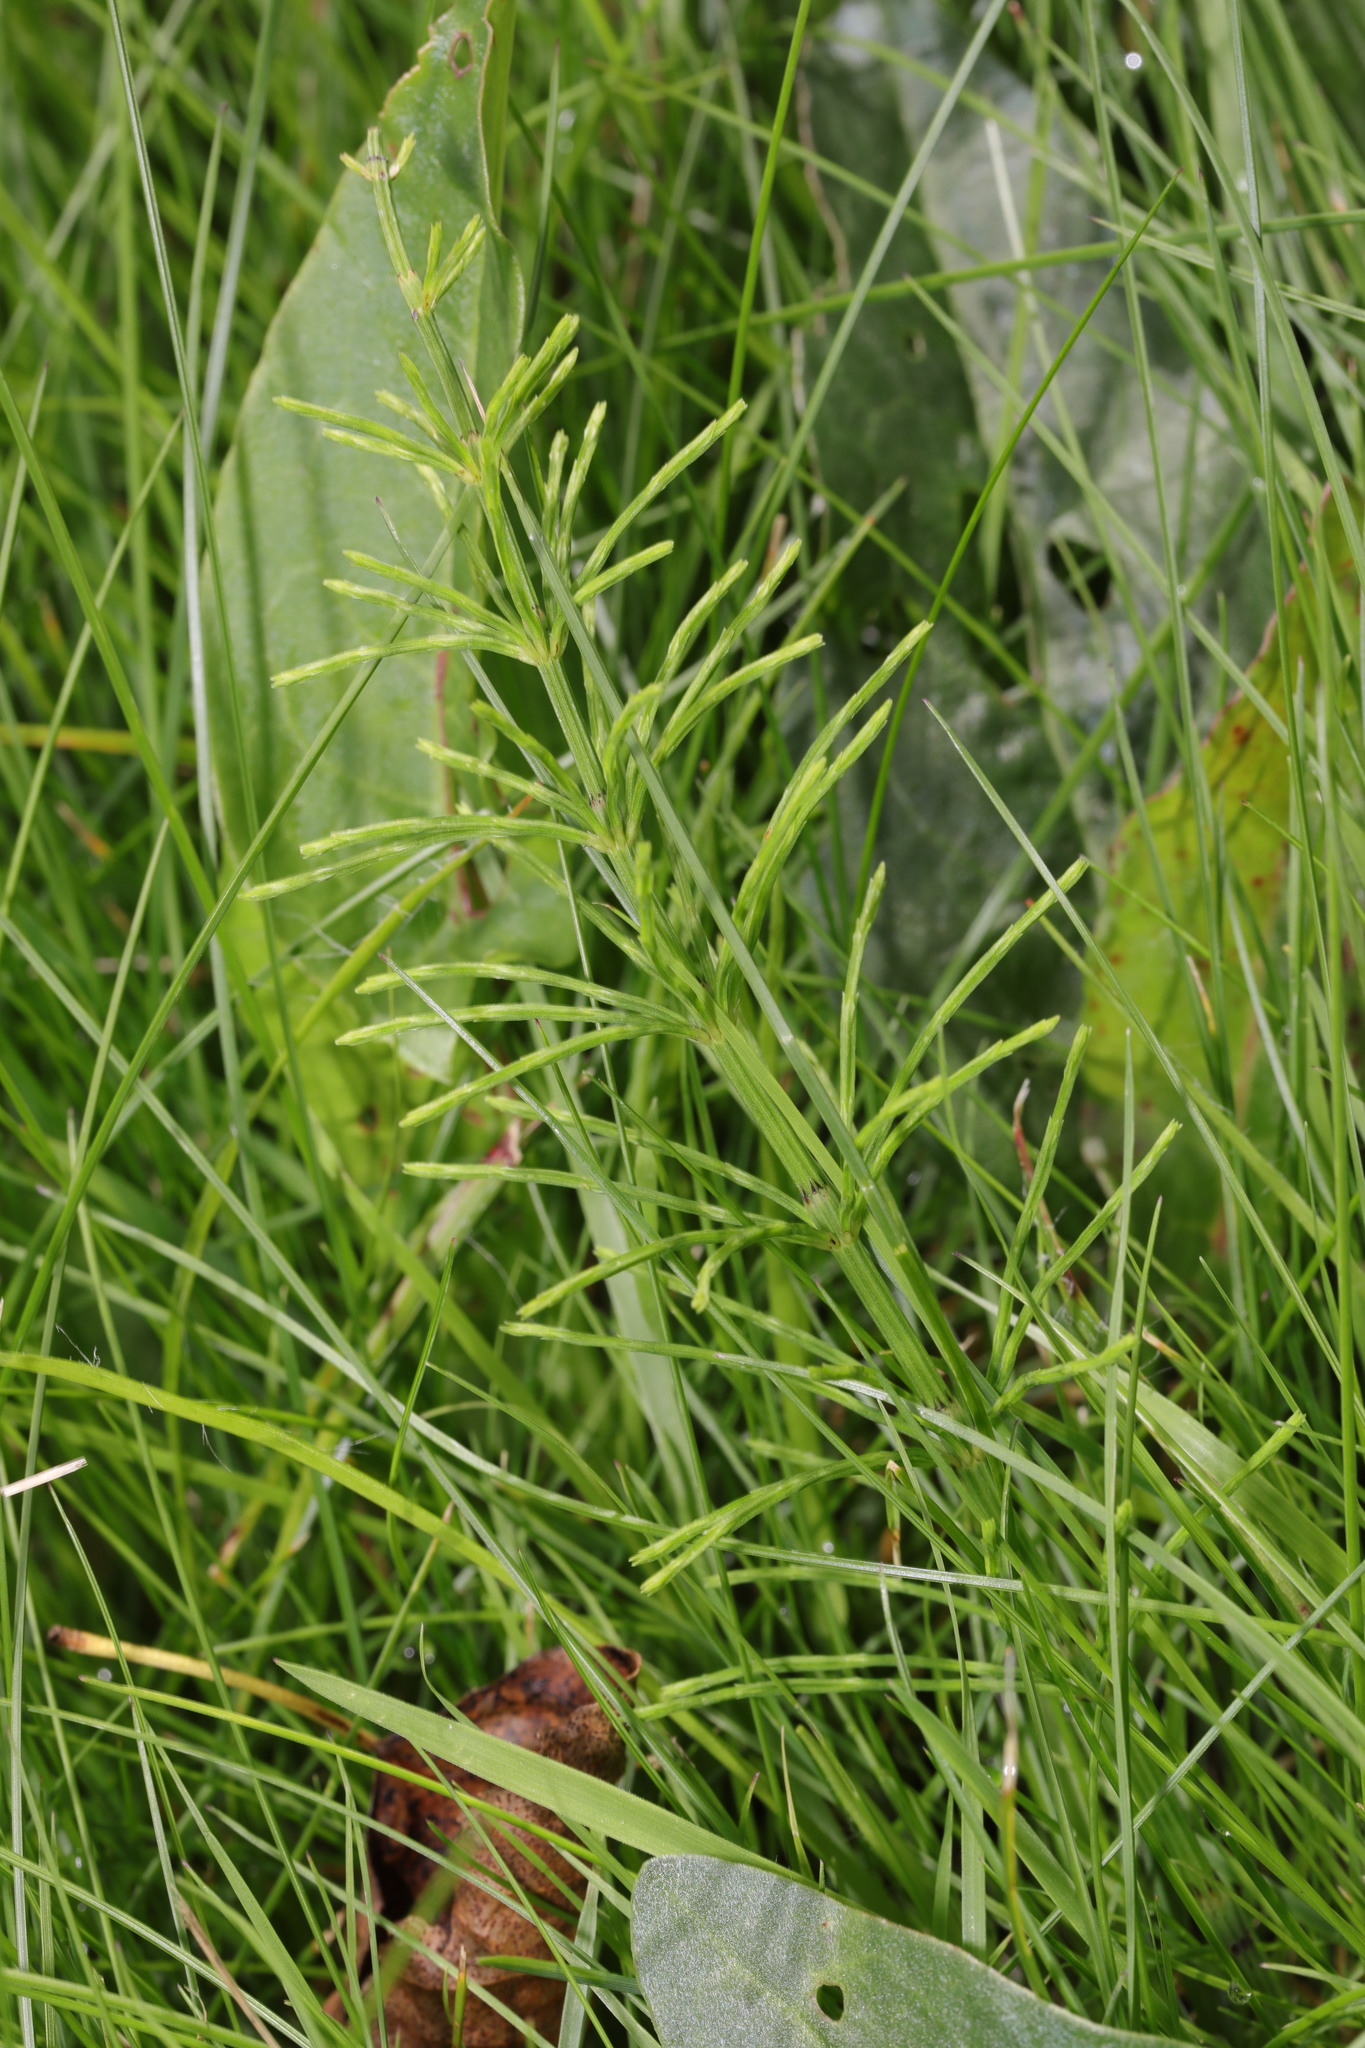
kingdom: Plantae
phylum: Tracheophyta
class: Polypodiopsida
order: Equisetales
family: Equisetaceae
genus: Equisetum
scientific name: Equisetum arvense
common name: Field horsetail
